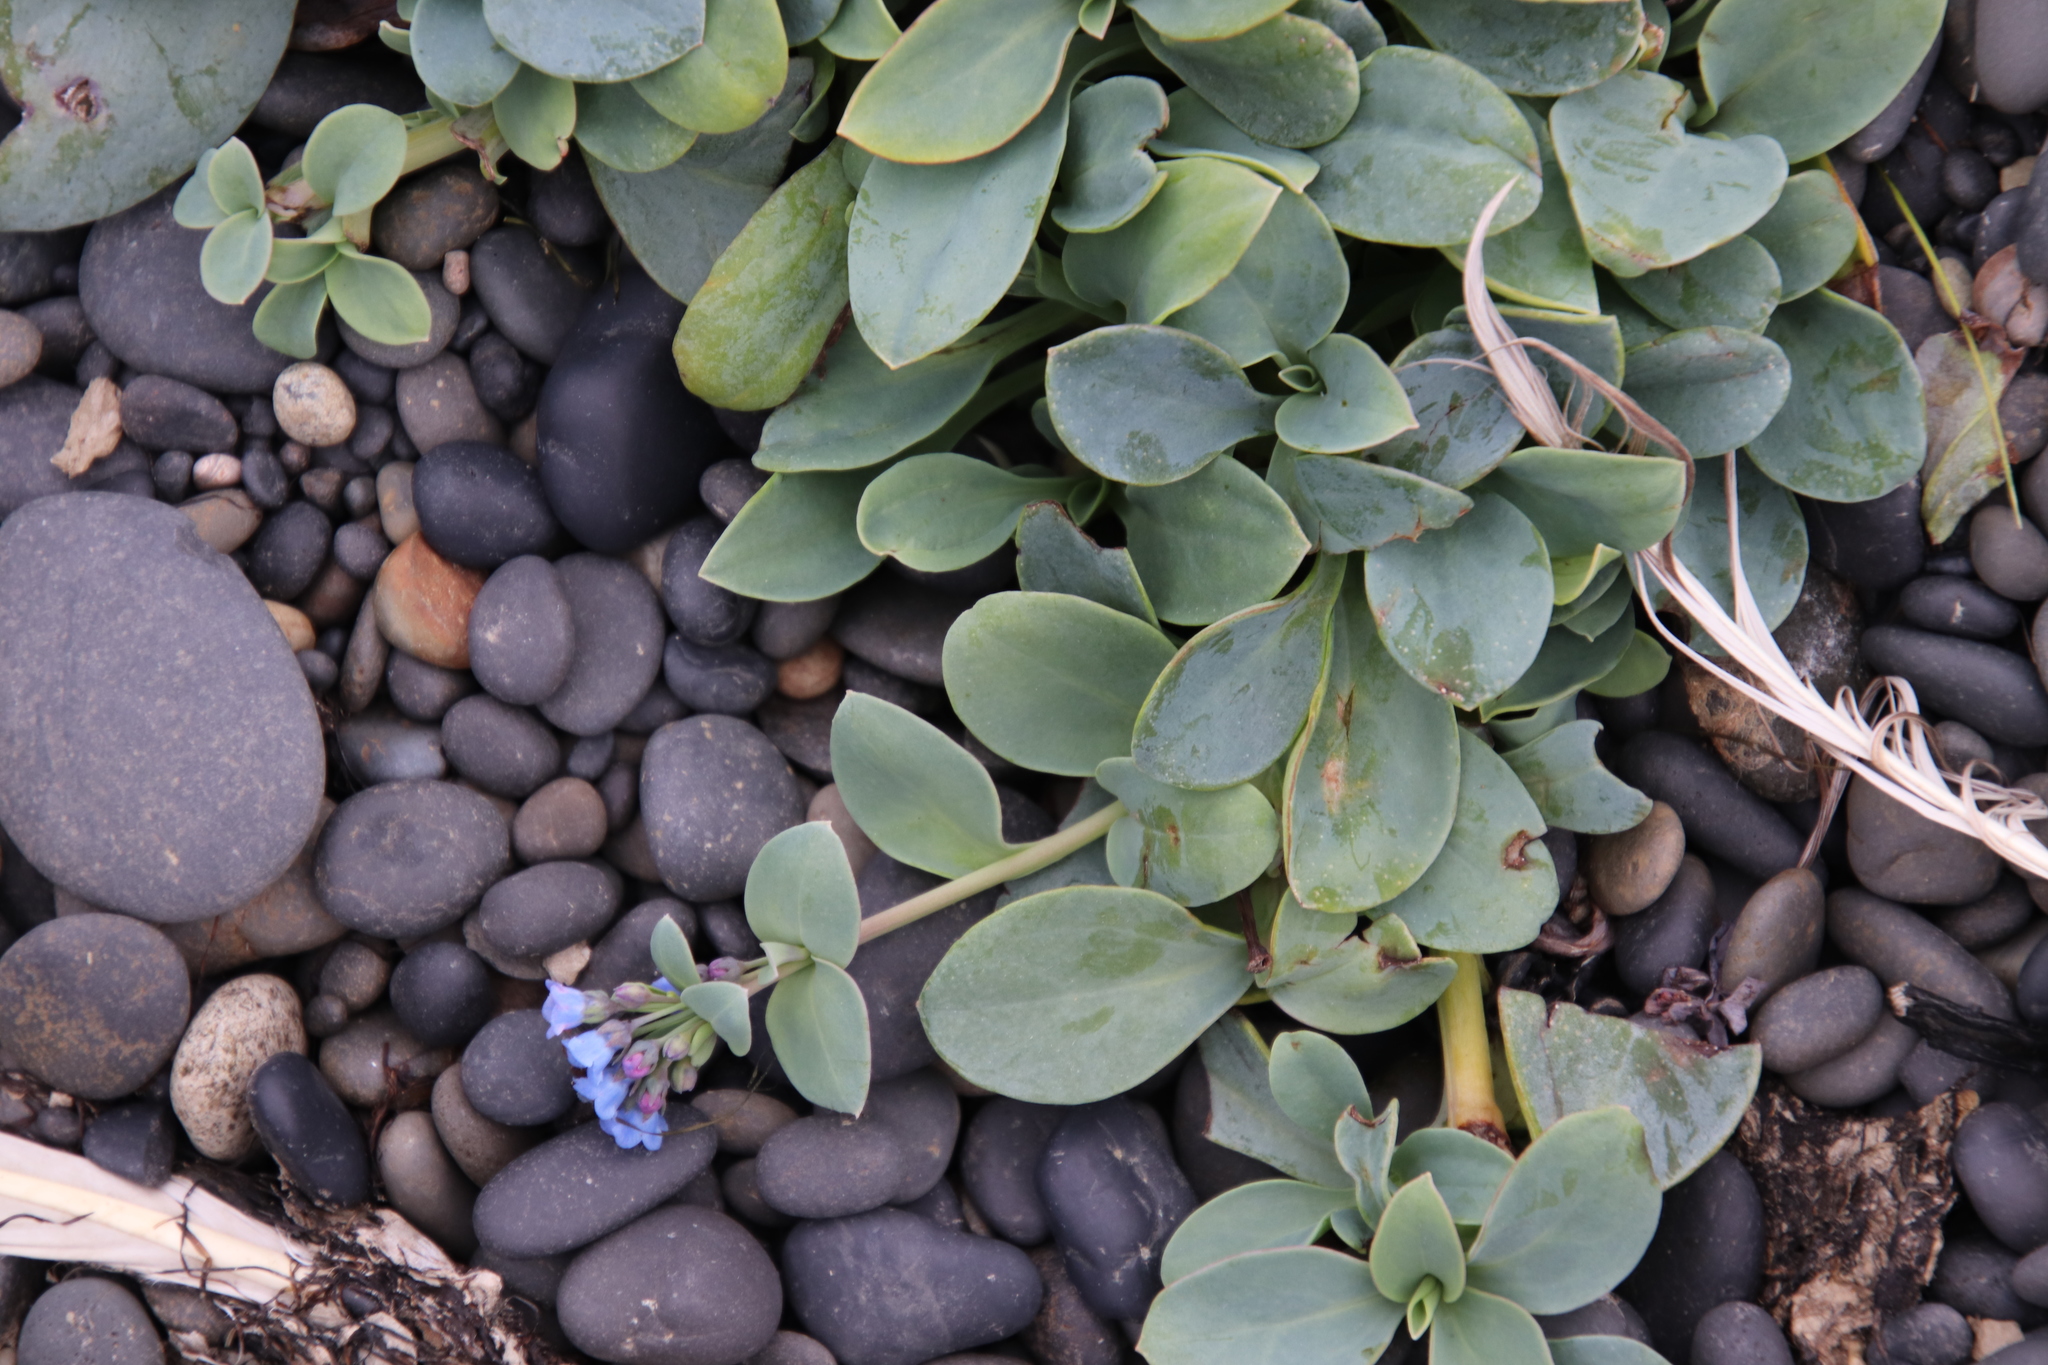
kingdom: Plantae
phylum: Tracheophyta
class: Magnoliopsida
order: Boraginales
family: Boraginaceae
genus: Mertensia
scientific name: Mertensia maritima
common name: Oysterplant
